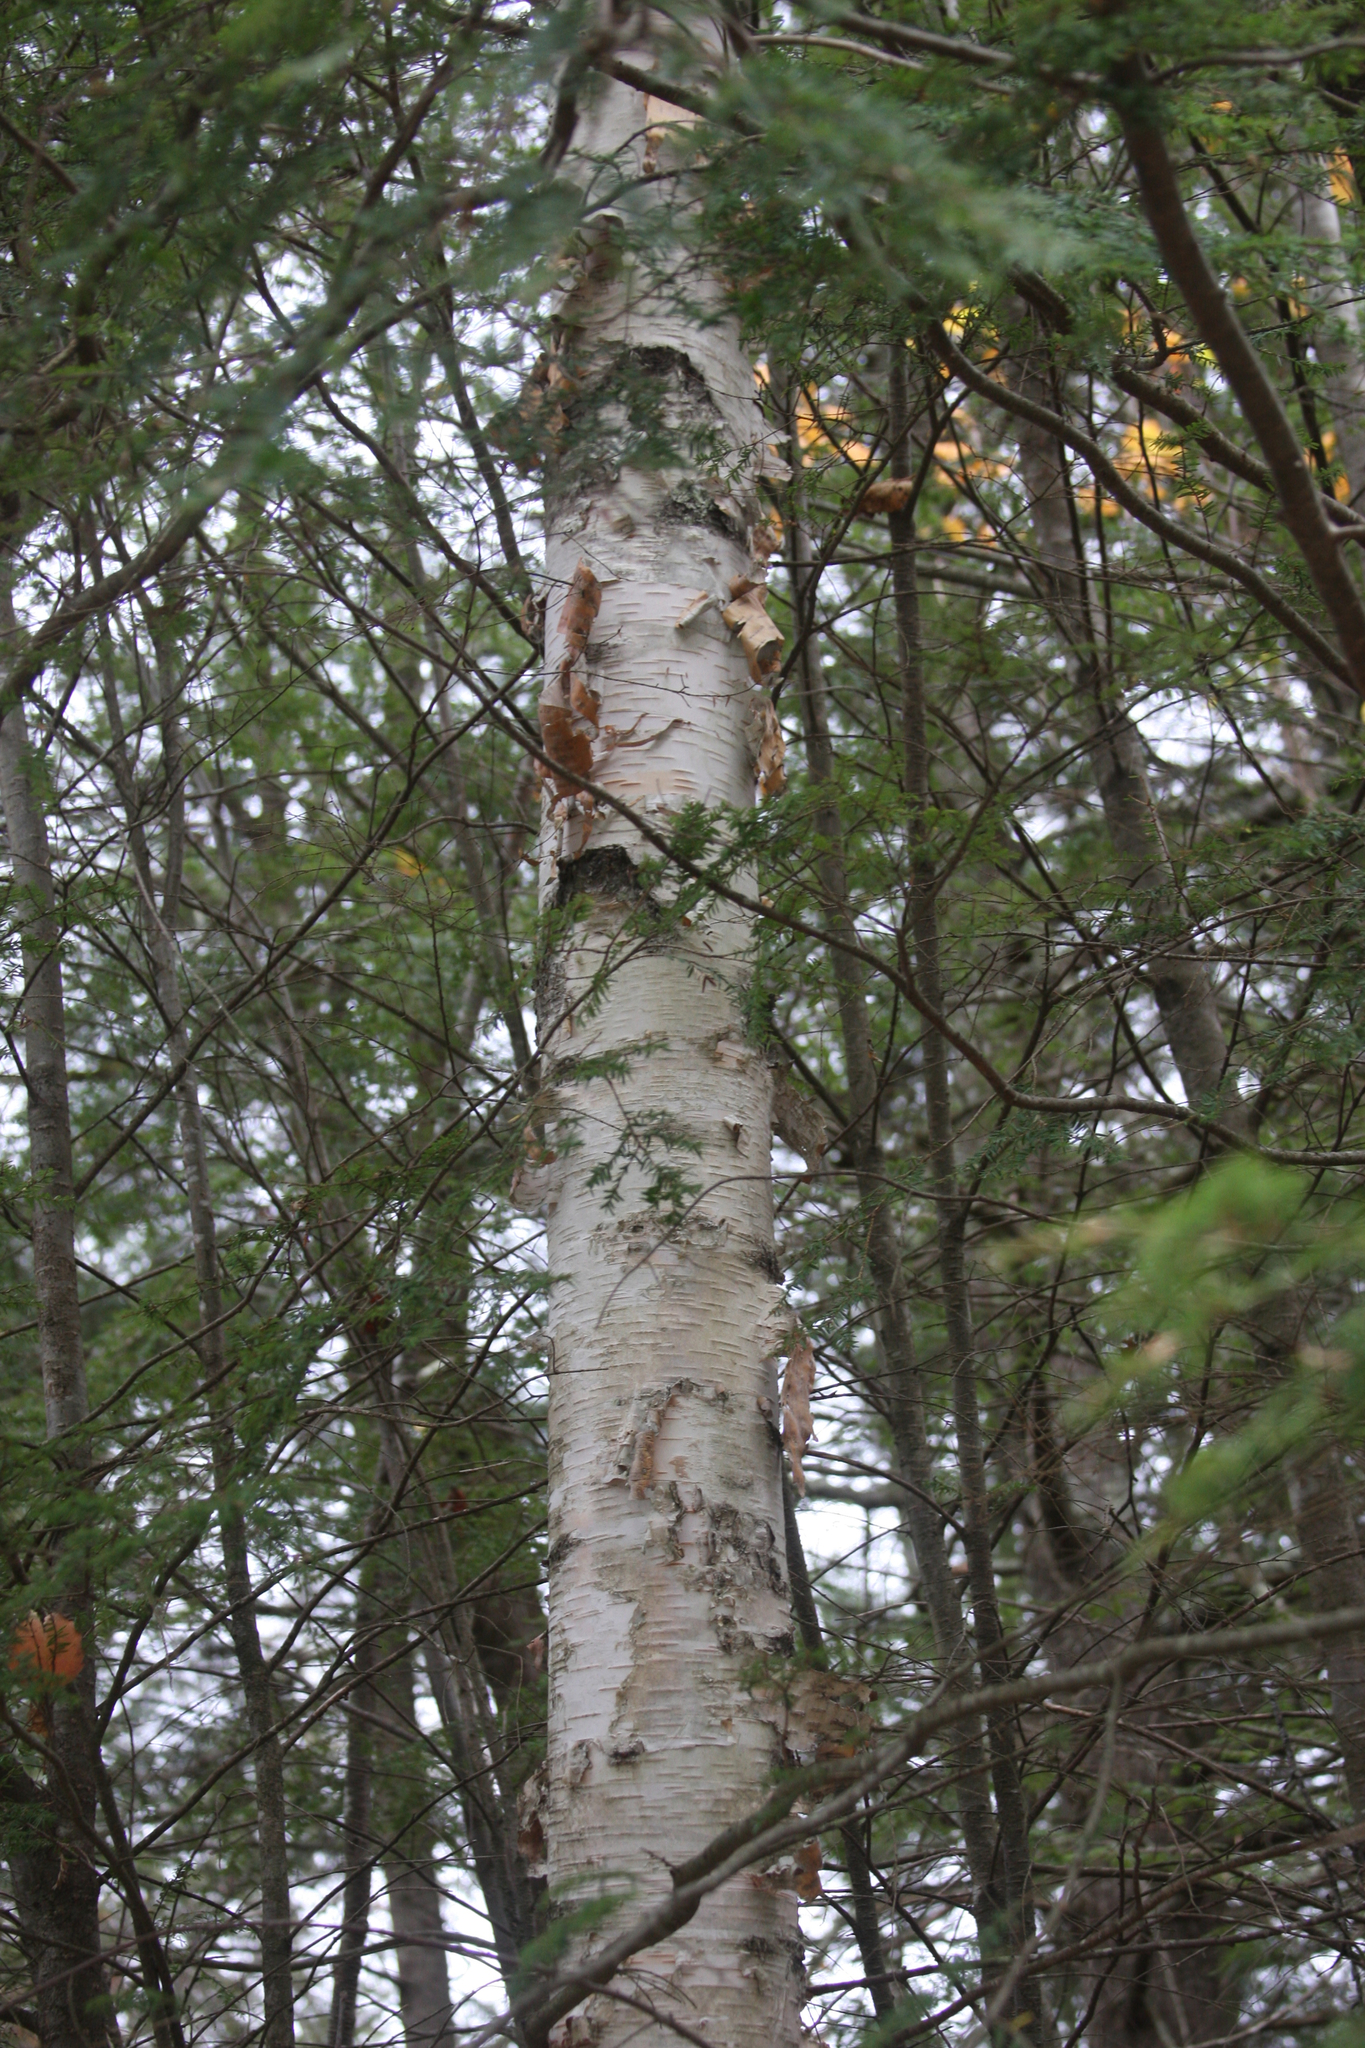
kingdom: Plantae
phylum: Tracheophyta
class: Magnoliopsida
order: Fagales
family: Betulaceae
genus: Betula
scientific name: Betula papyrifera
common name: Paper birch
